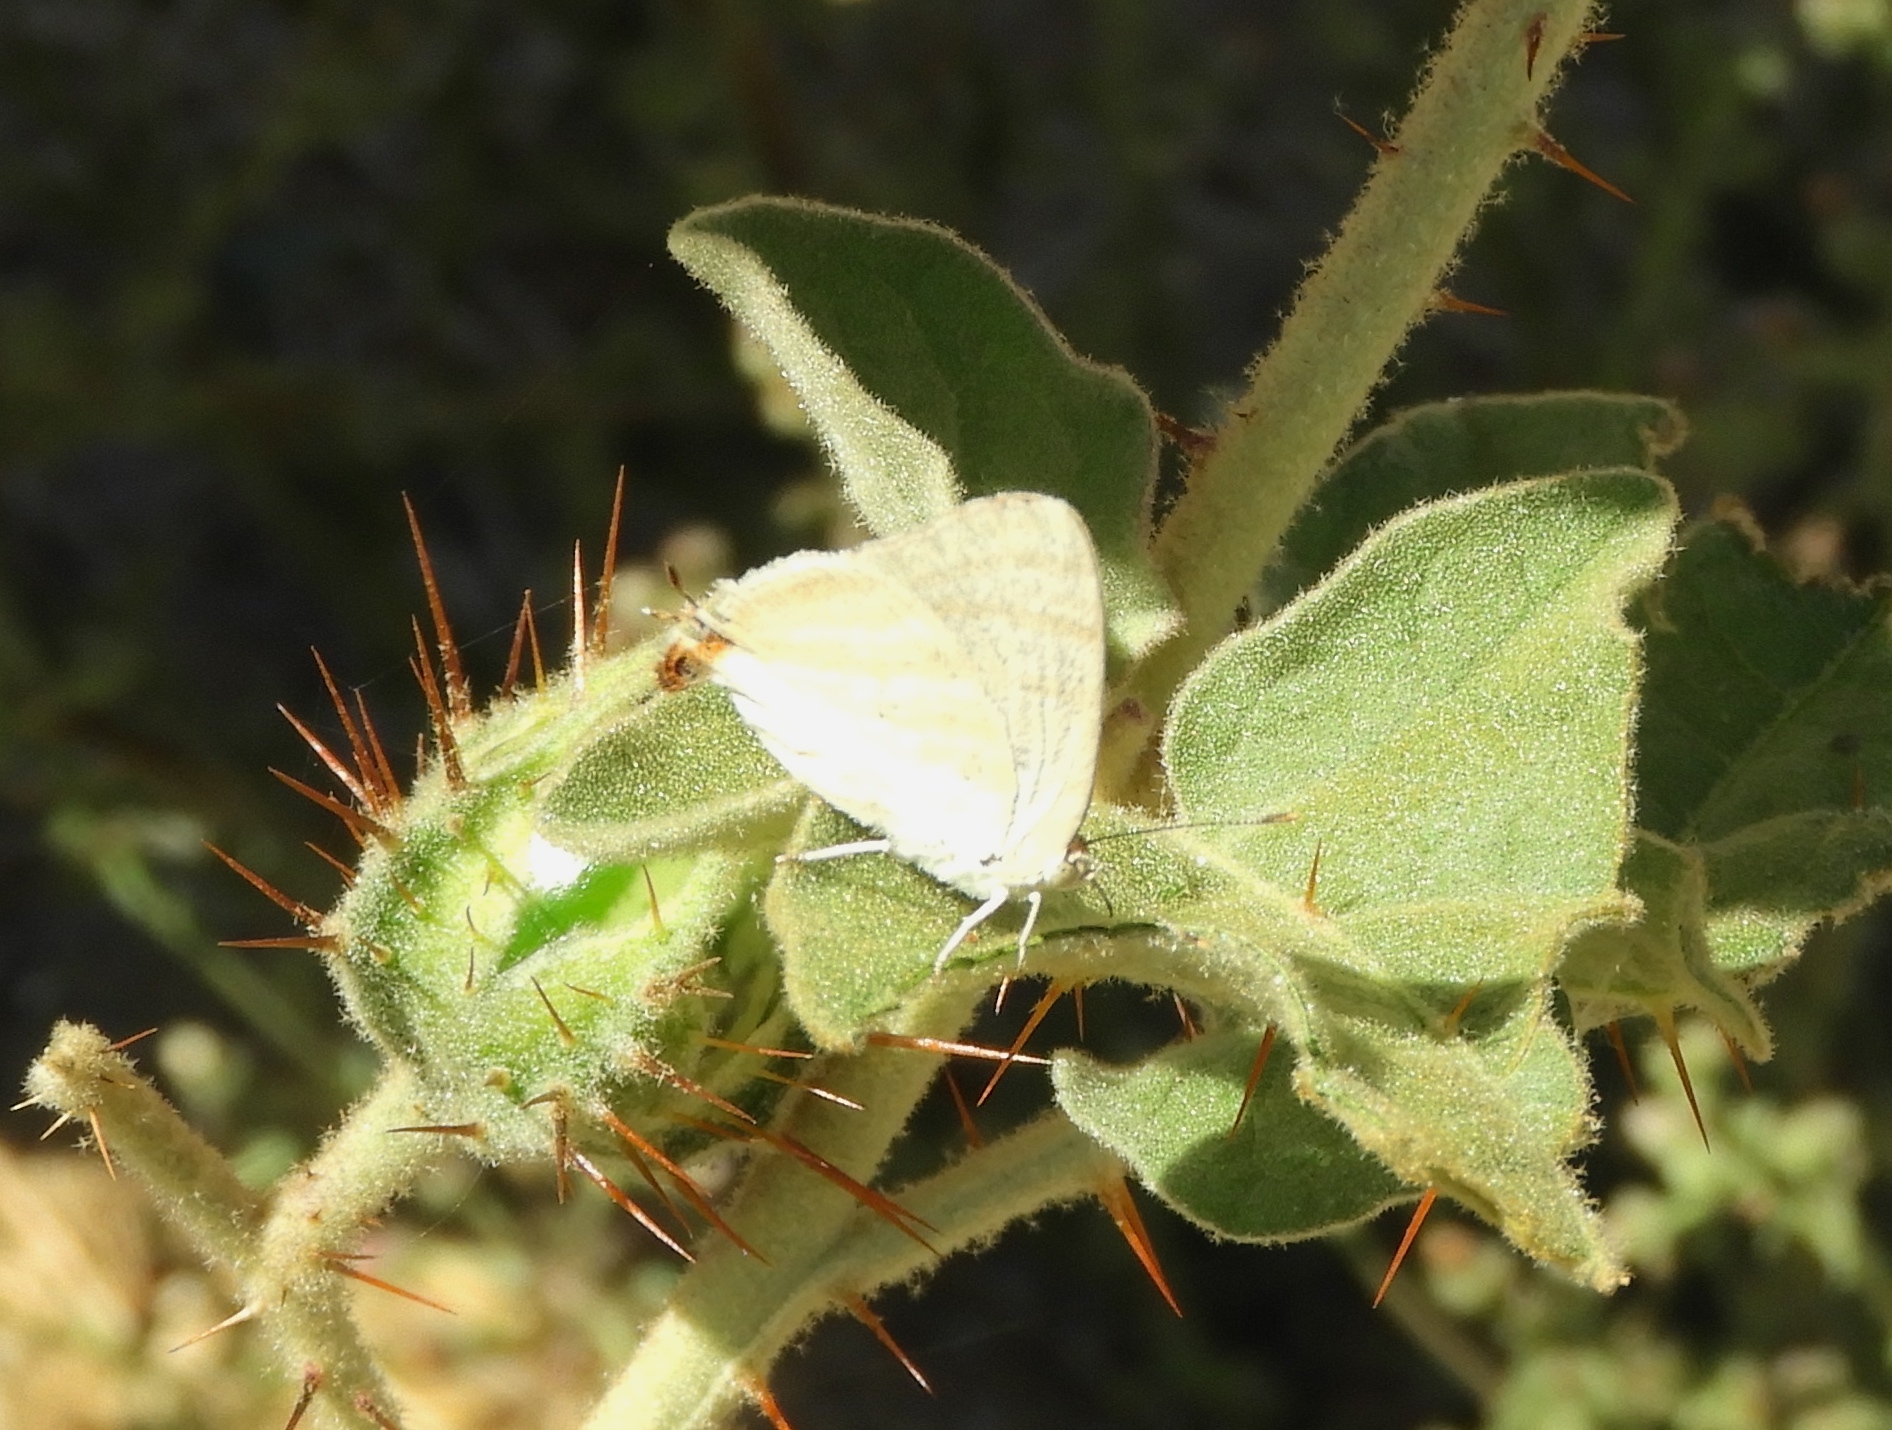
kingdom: Animalia
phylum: Arthropoda
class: Insecta
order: Lepidoptera
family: Lycaenidae
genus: Dolymorpha
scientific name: Dolymorpha jada
